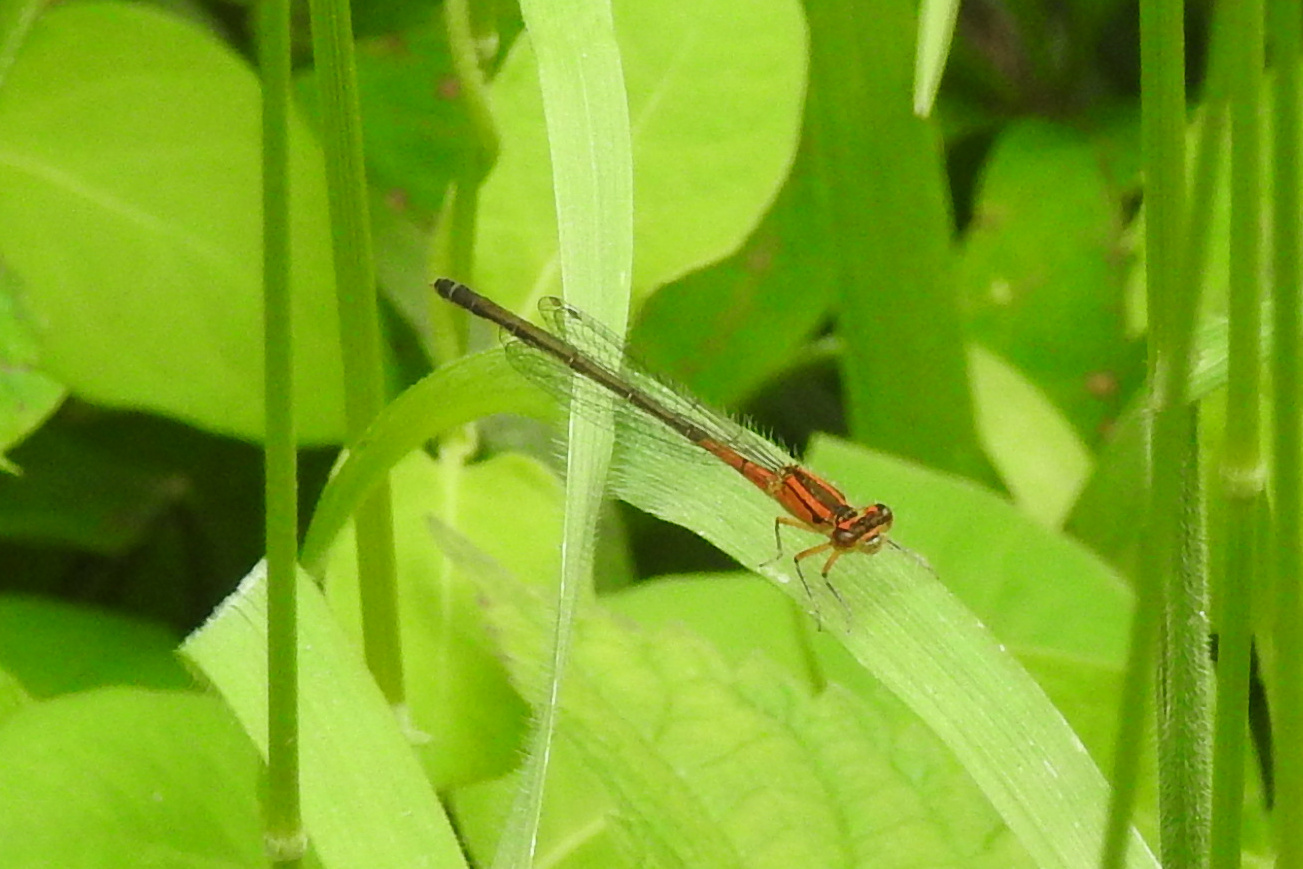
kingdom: Animalia
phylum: Arthropoda
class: Insecta
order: Odonata
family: Coenagrionidae
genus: Ischnura
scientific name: Ischnura verticalis
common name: Eastern forktail
